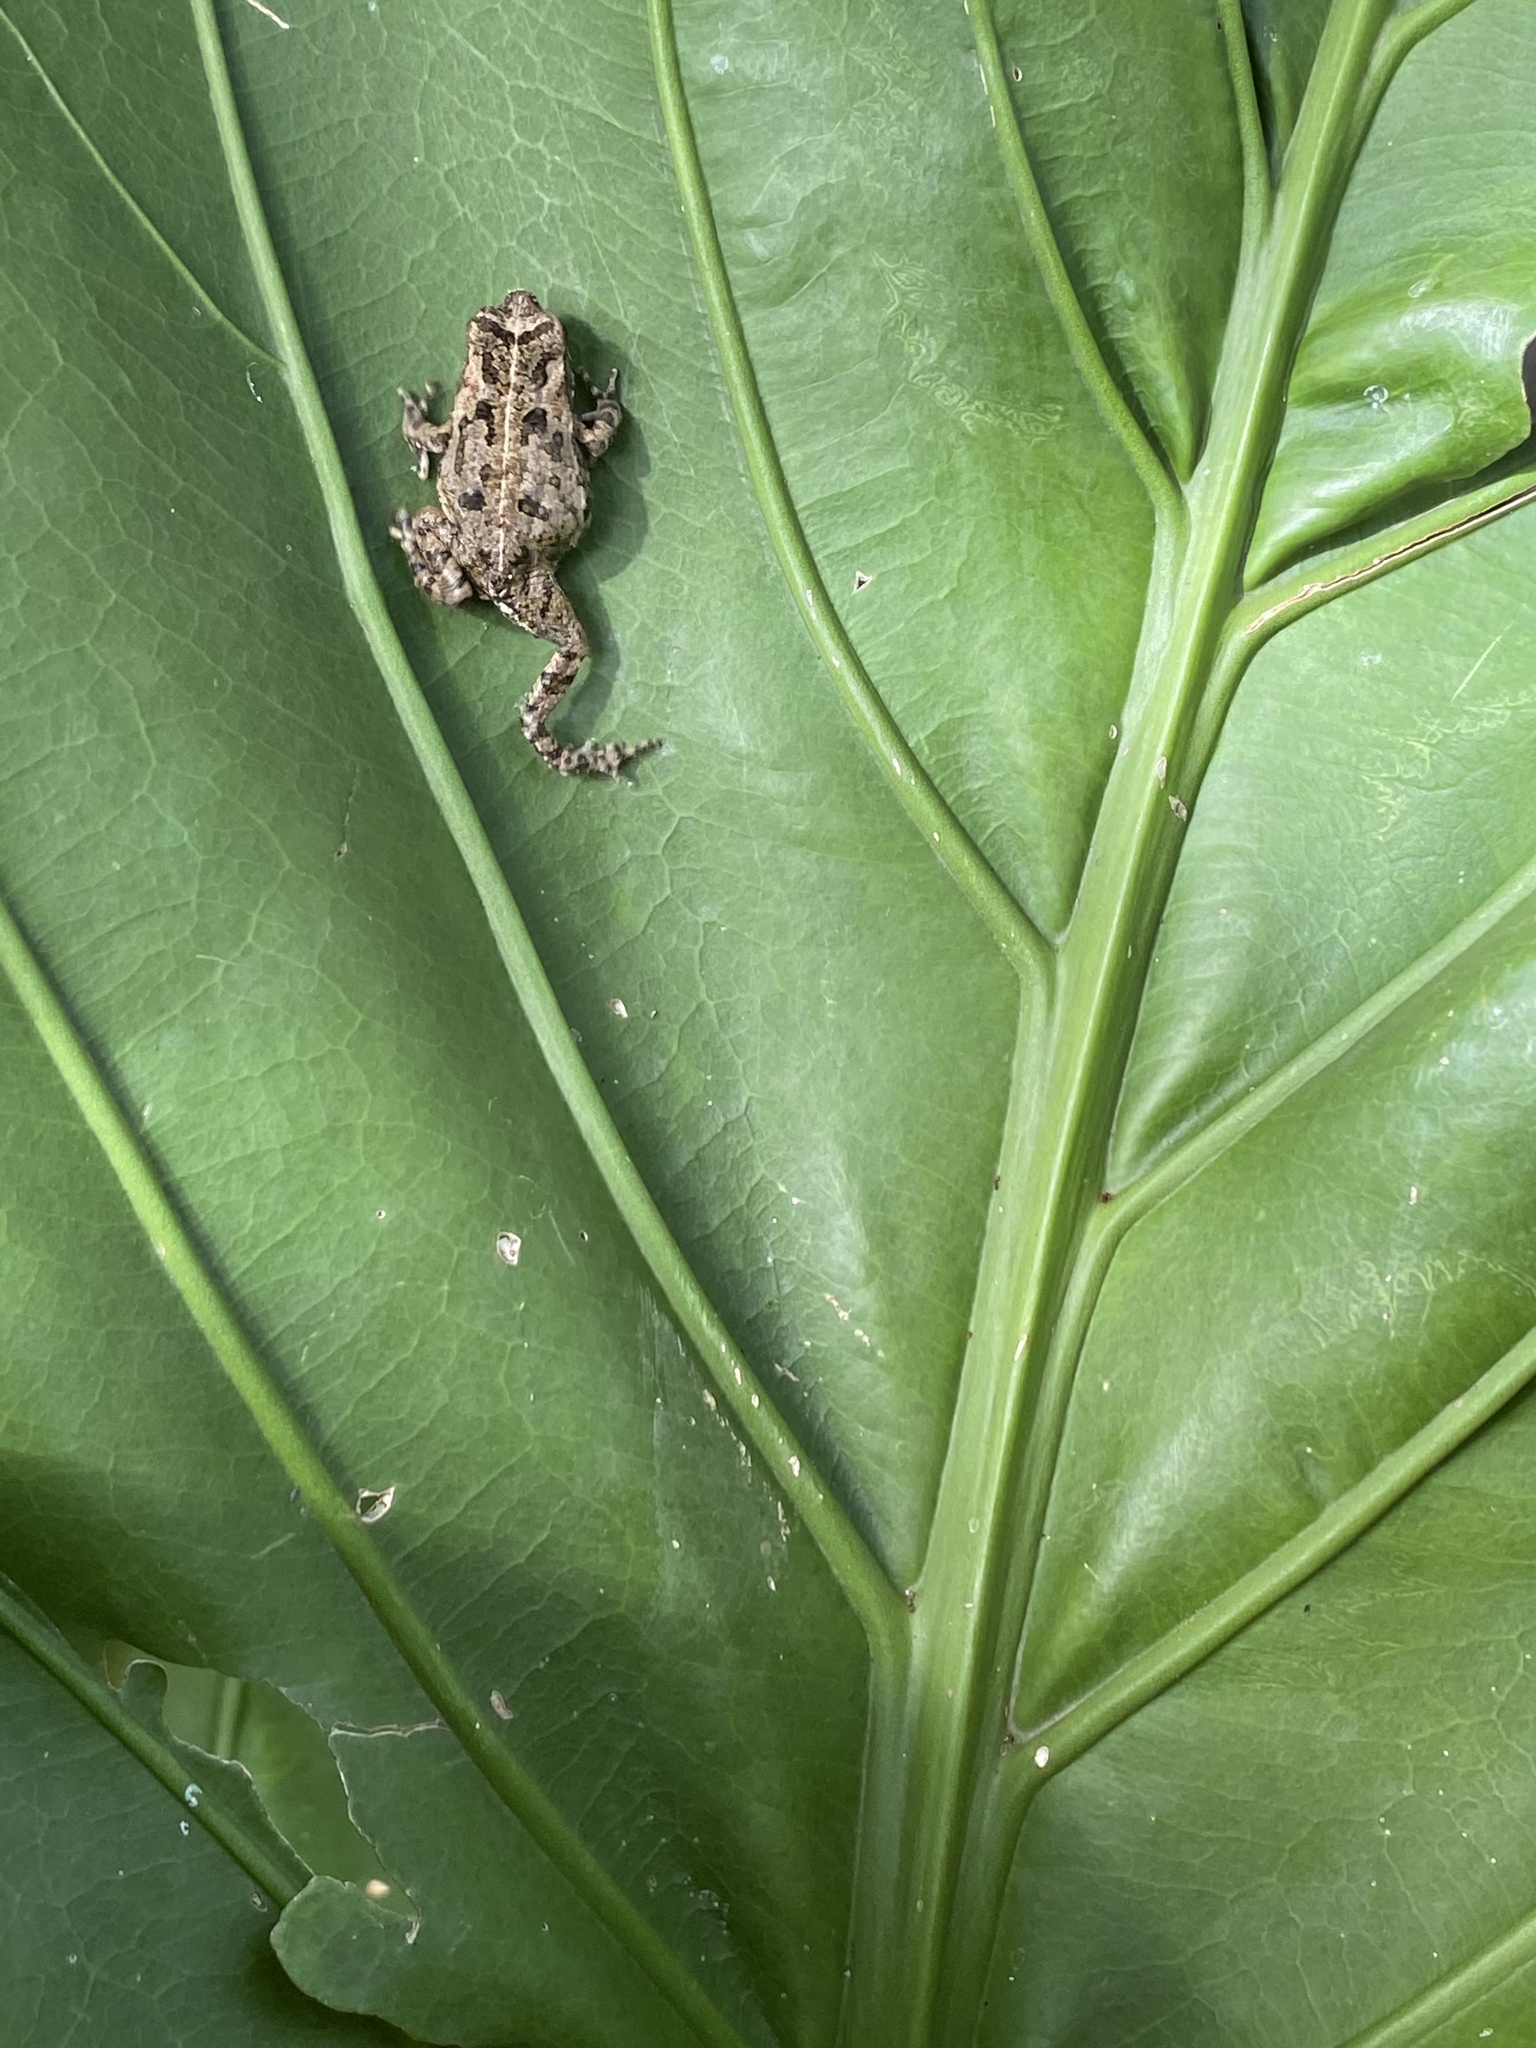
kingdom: Animalia
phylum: Chordata
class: Amphibia
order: Anura
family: Bufonidae
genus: Rhinella
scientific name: Rhinella marina
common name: Cane toad
